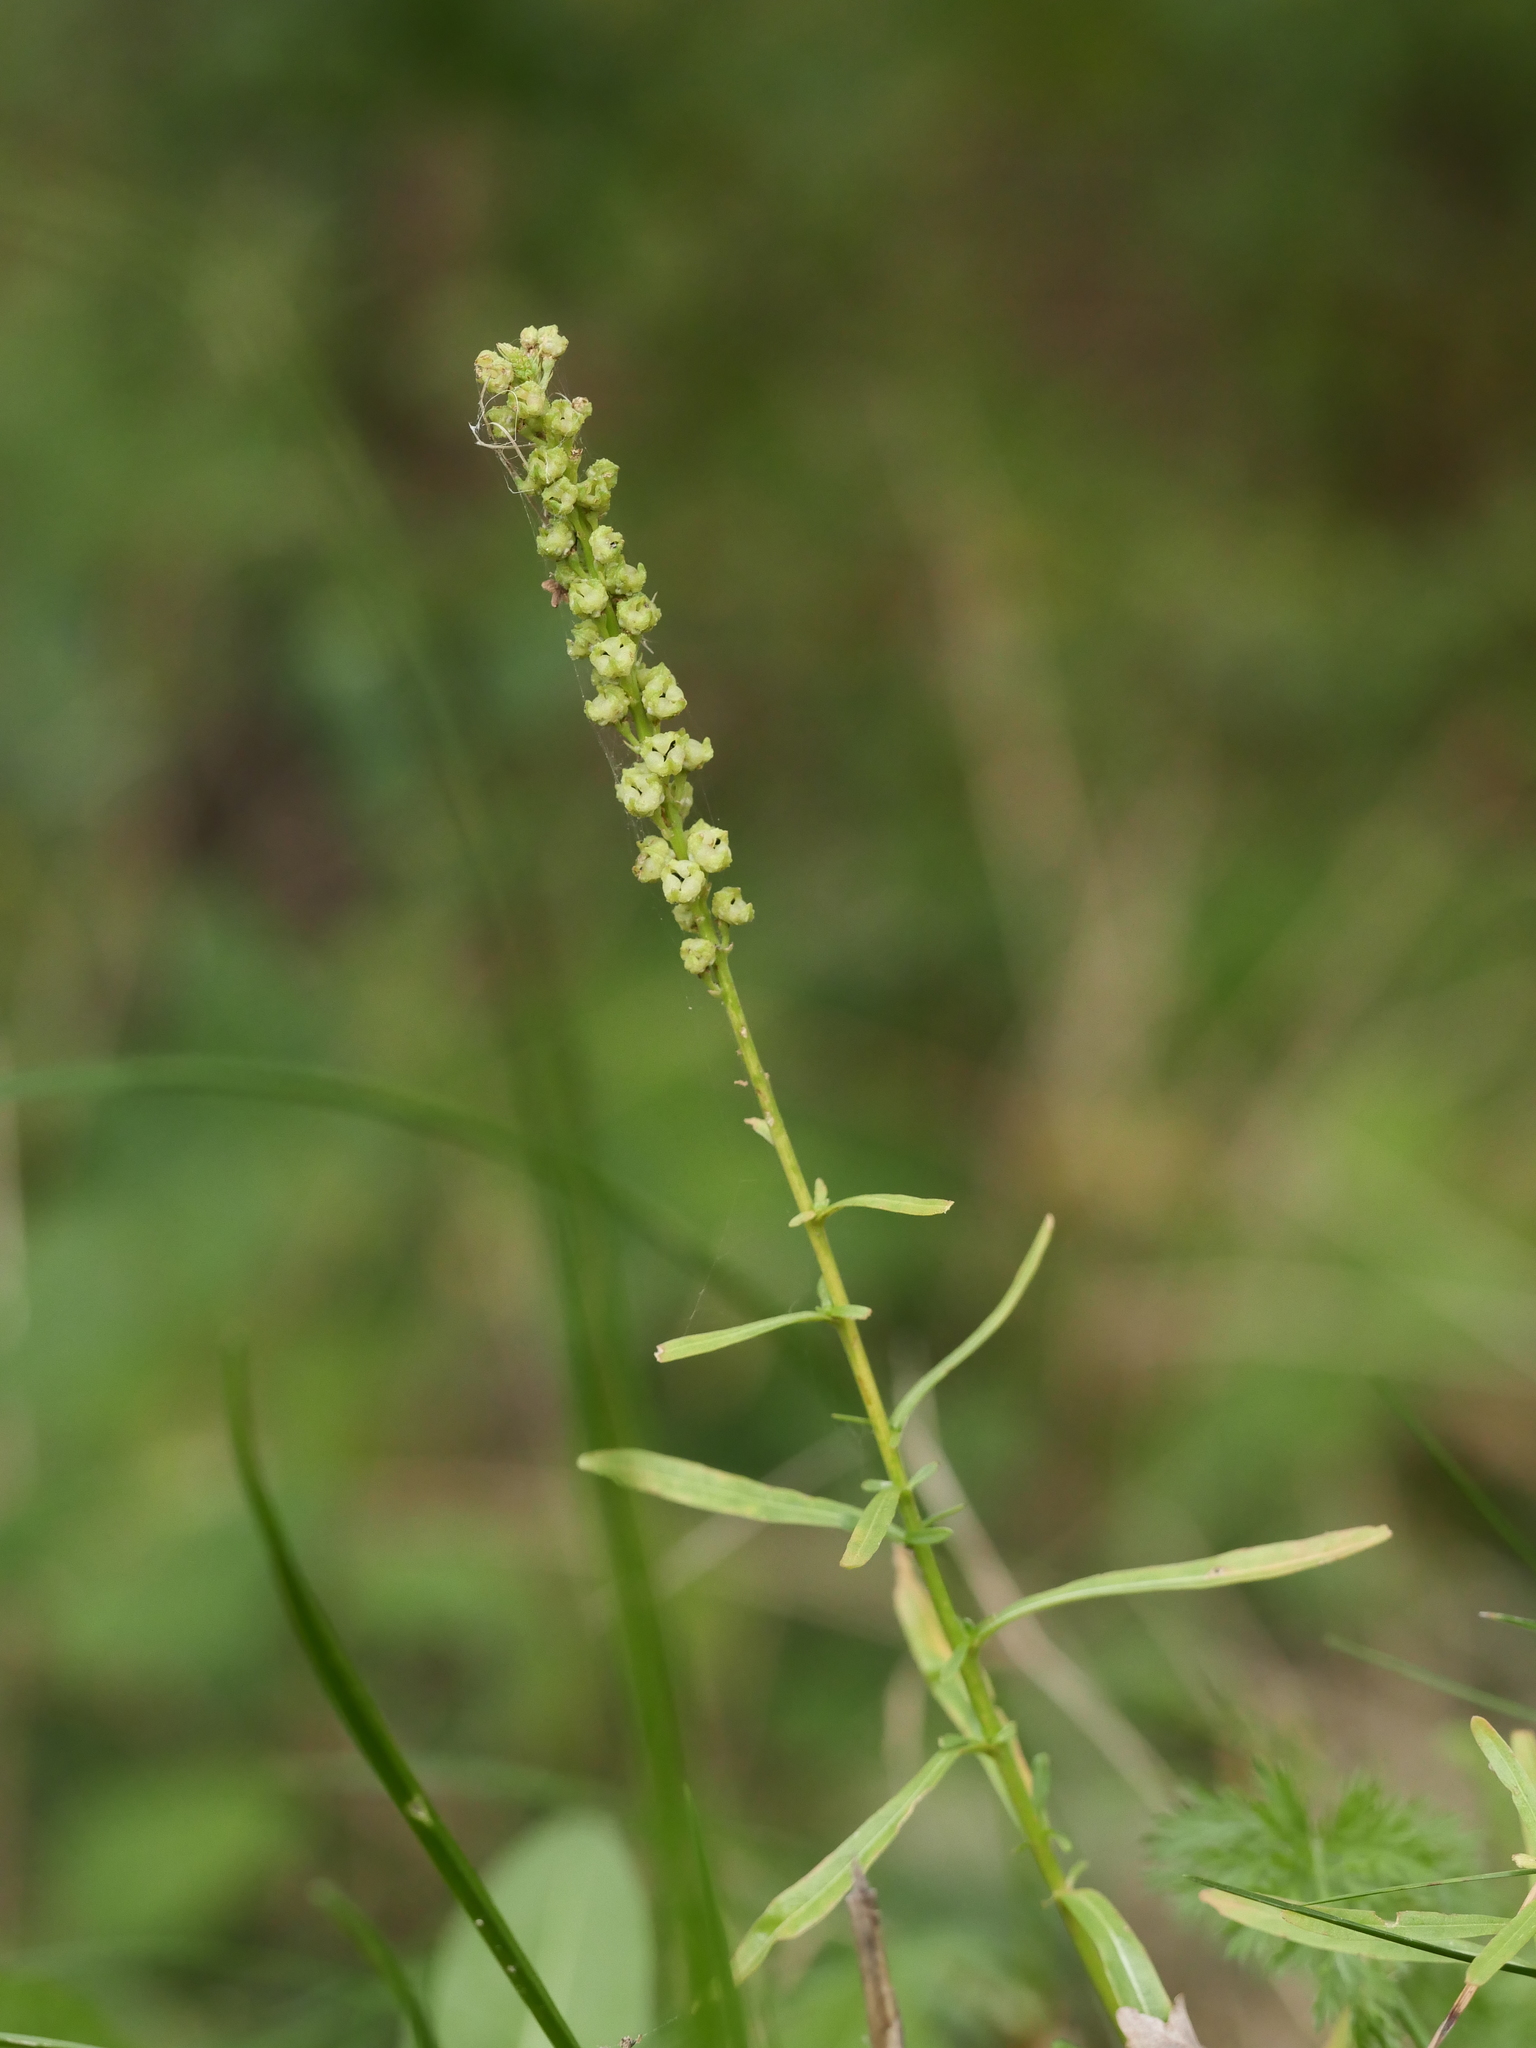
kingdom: Plantae
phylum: Tracheophyta
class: Magnoliopsida
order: Brassicales
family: Resedaceae
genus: Reseda
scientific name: Reseda luteola
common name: Weld
